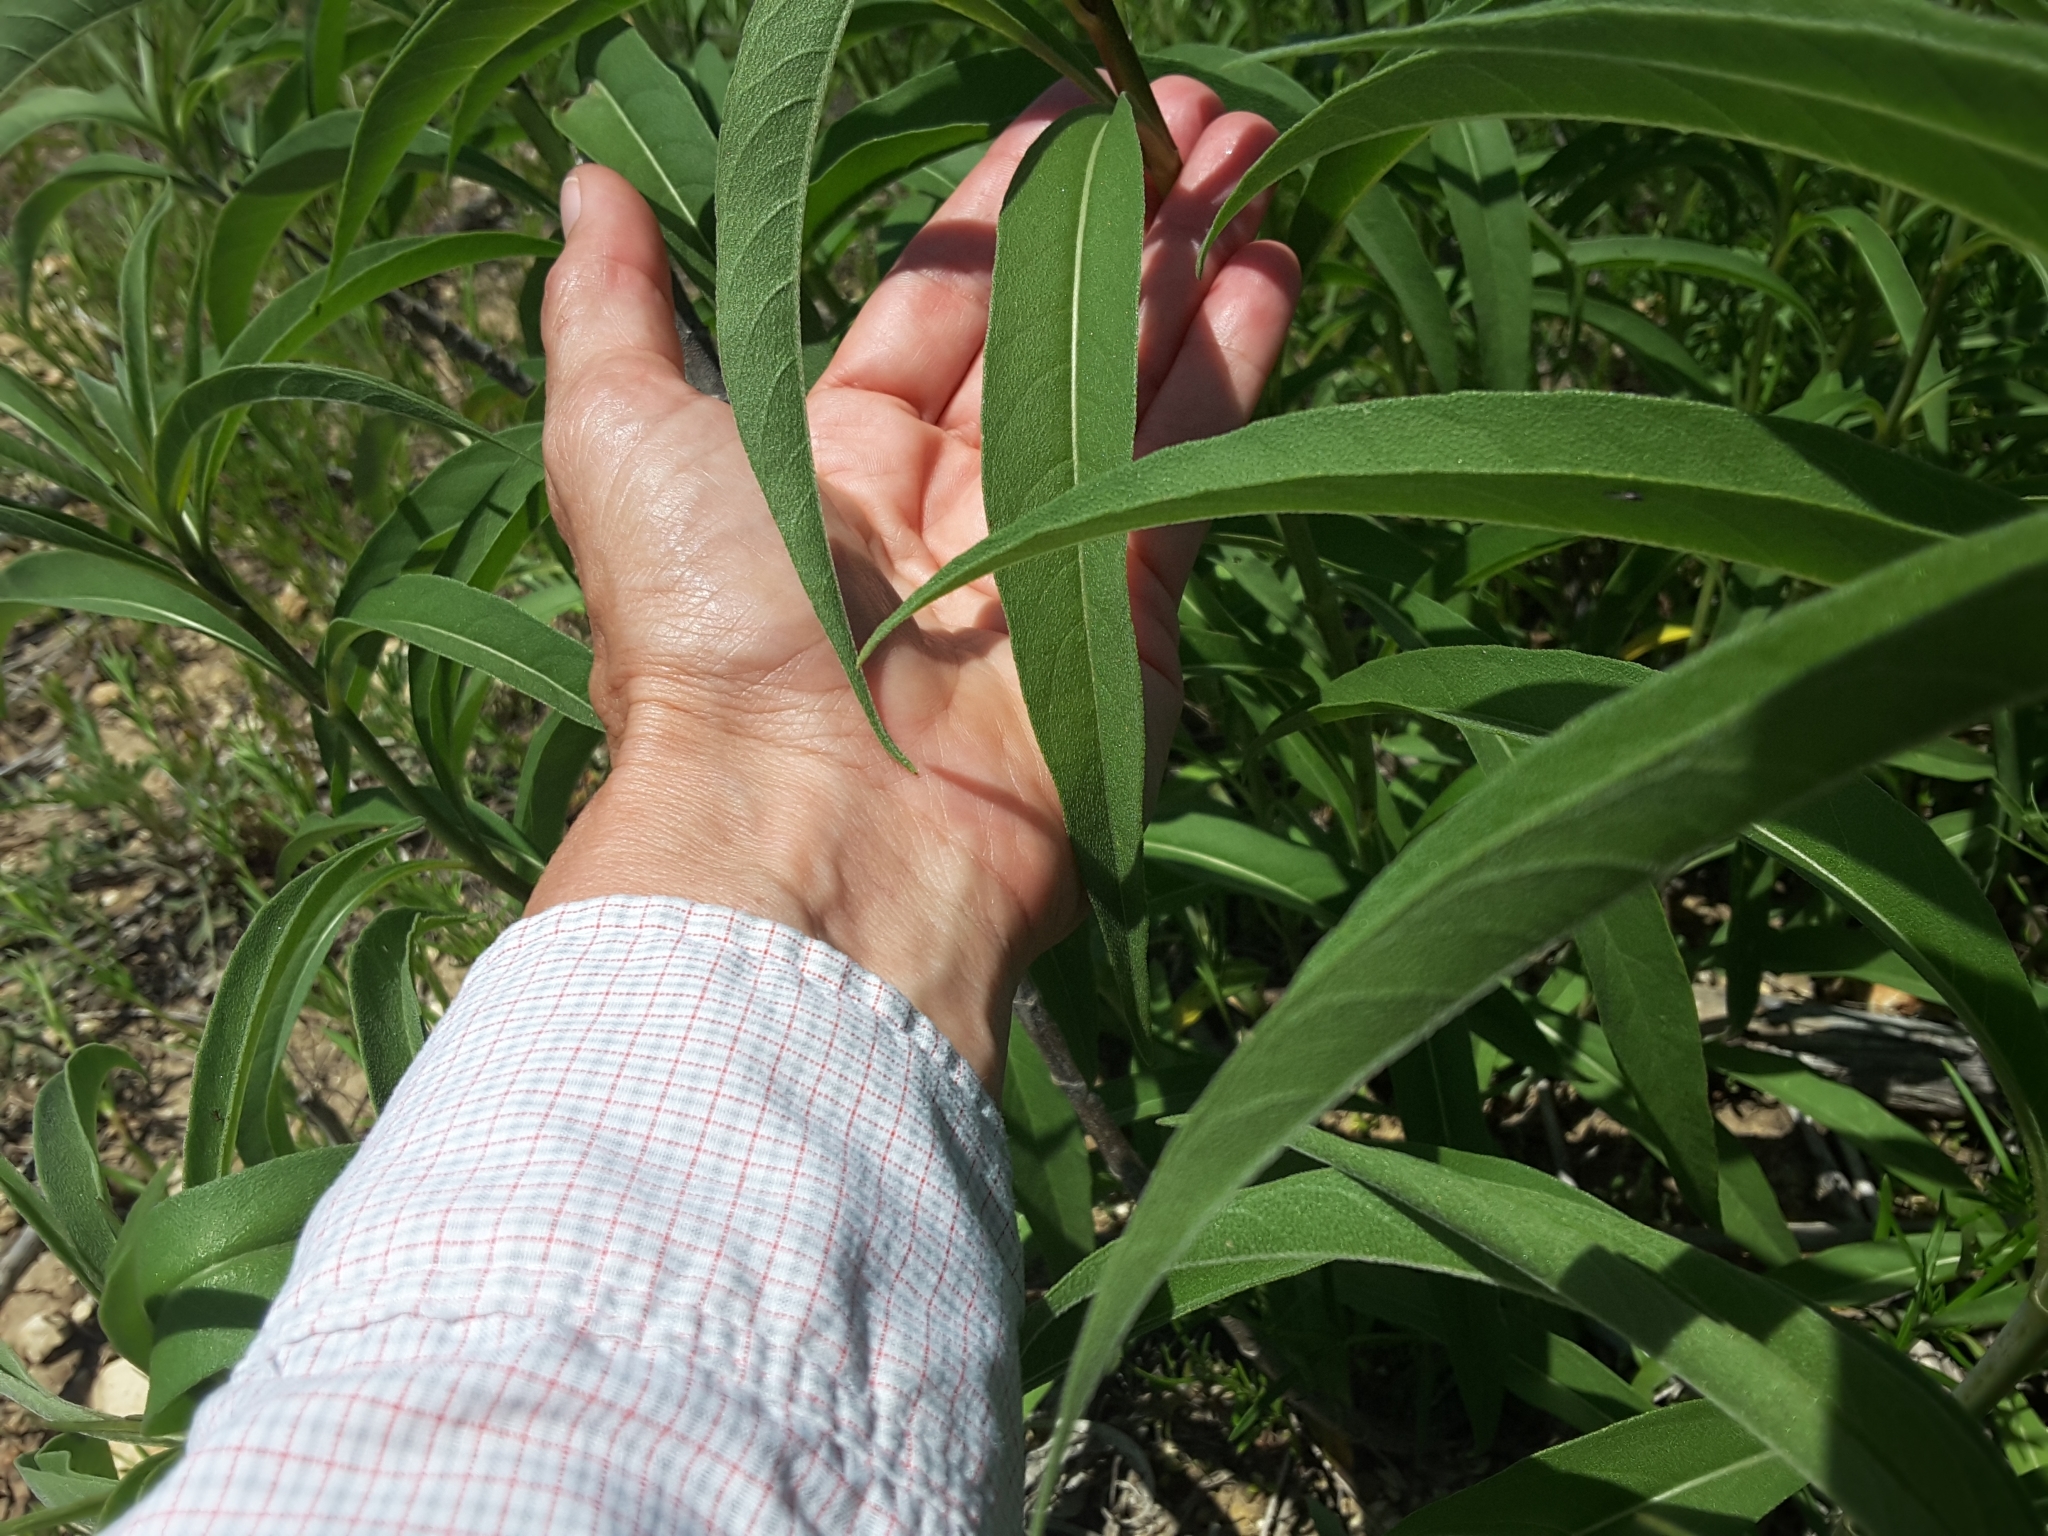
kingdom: Plantae
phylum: Tracheophyta
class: Magnoliopsida
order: Asterales
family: Asteraceae
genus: Helianthus
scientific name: Helianthus maximiliani
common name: Maximilian's sunflower
